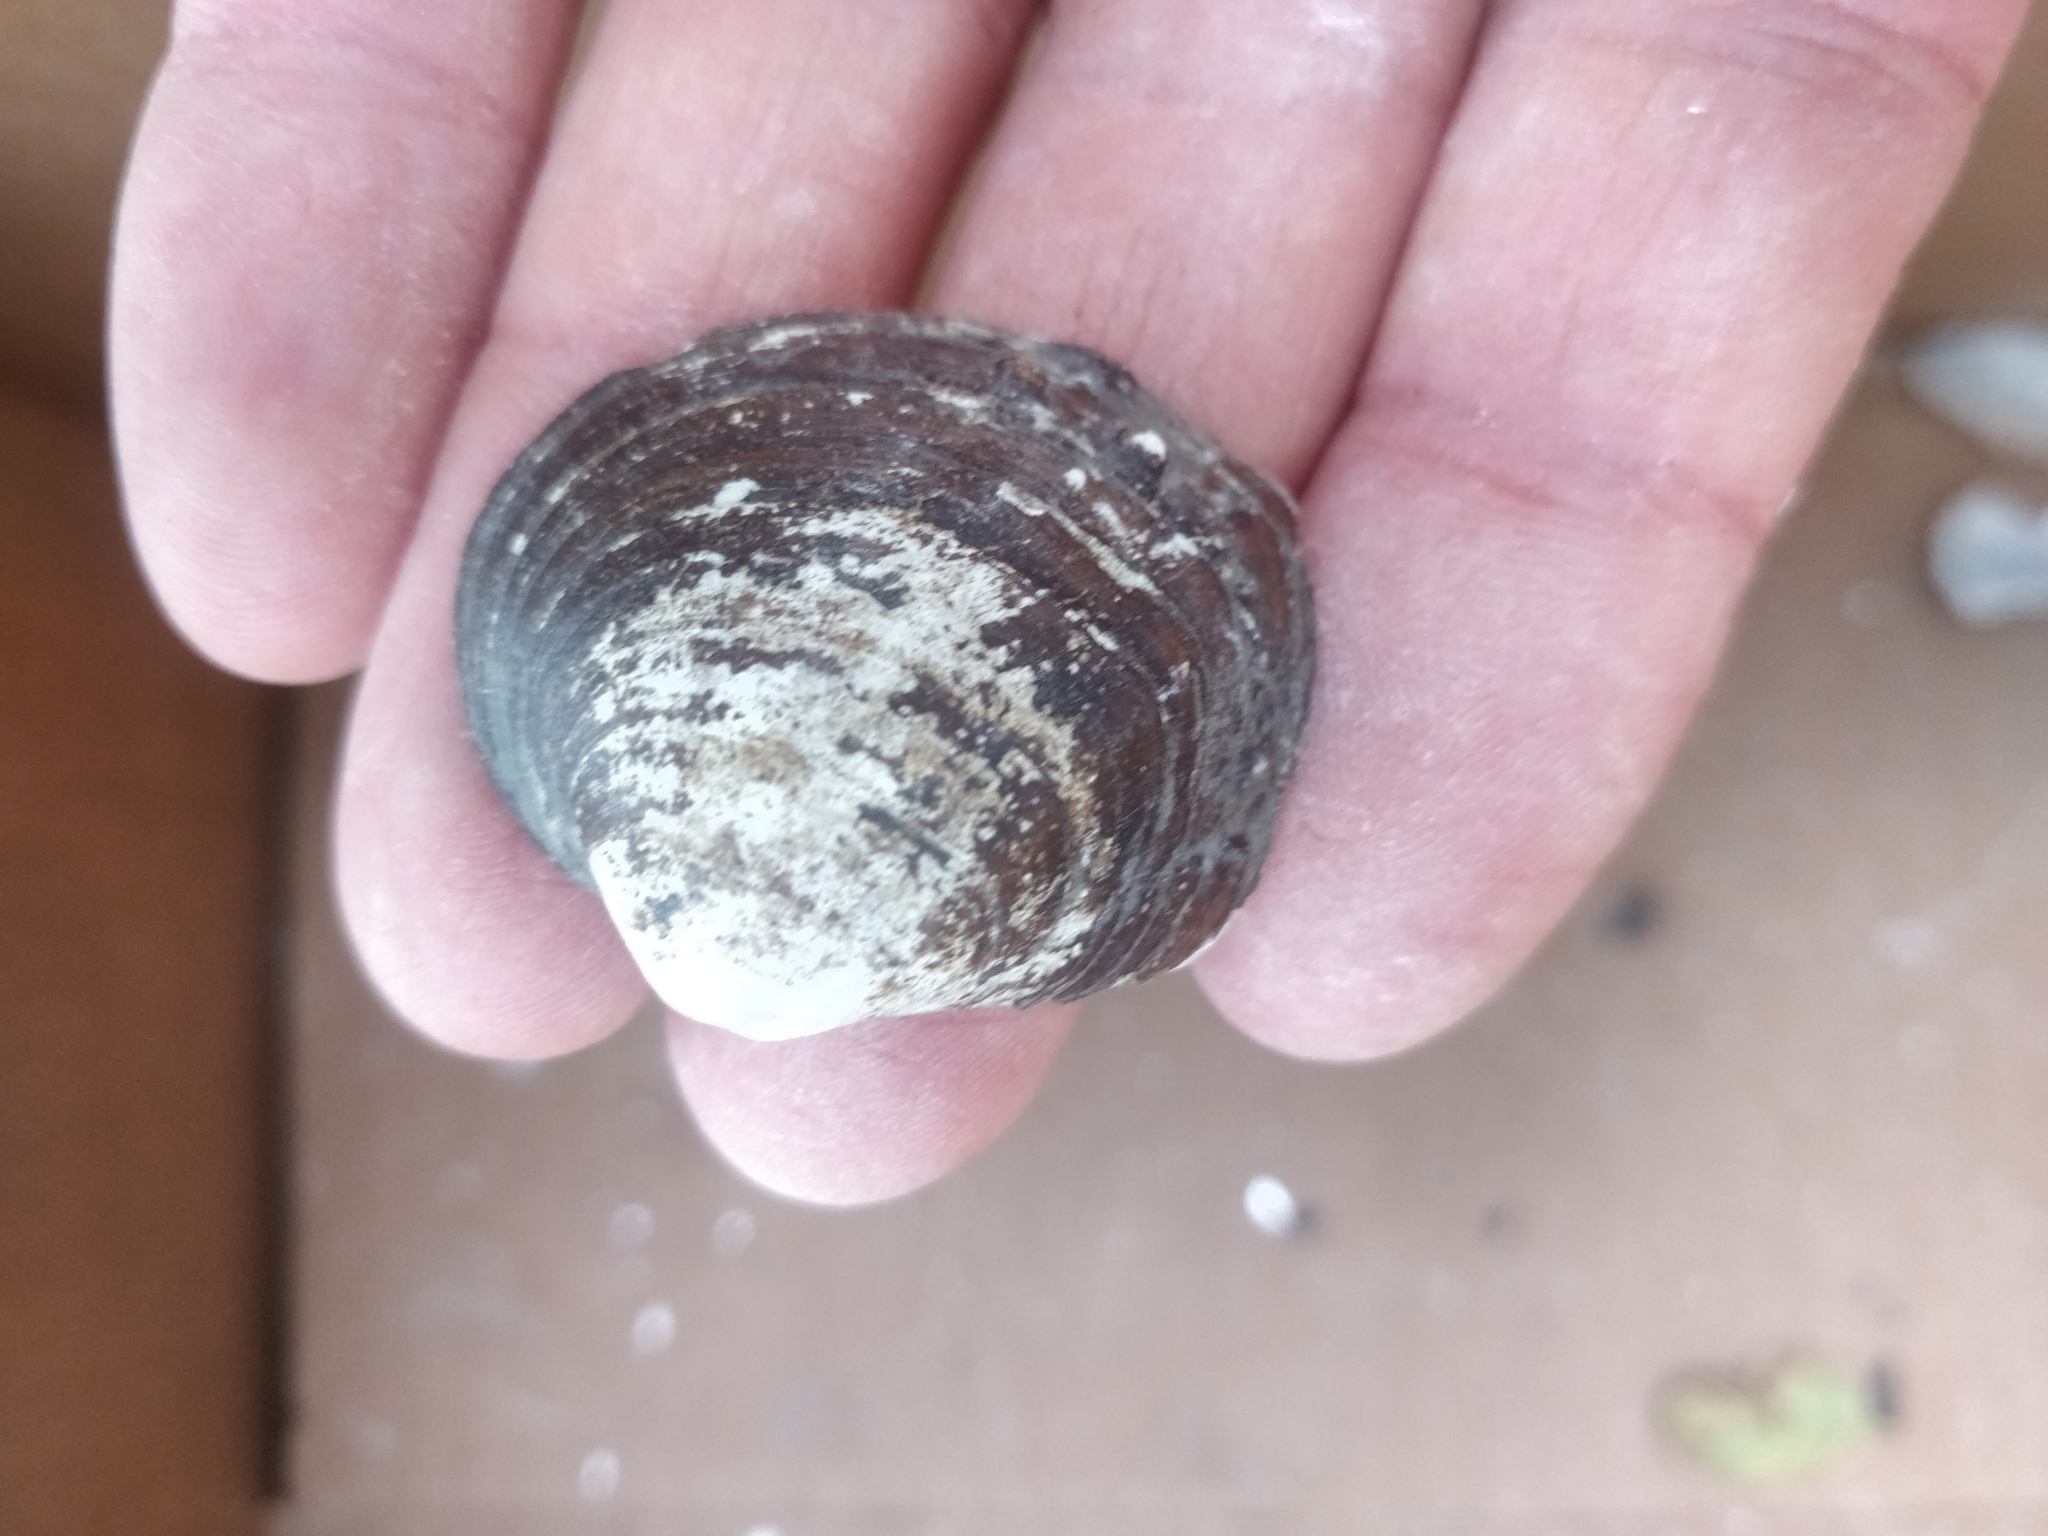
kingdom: Animalia
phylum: Mollusca
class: Bivalvia
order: Unionida
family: Unionidae
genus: Cyclonaias
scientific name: Cyclonaias pustulosa
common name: Pimpleback
